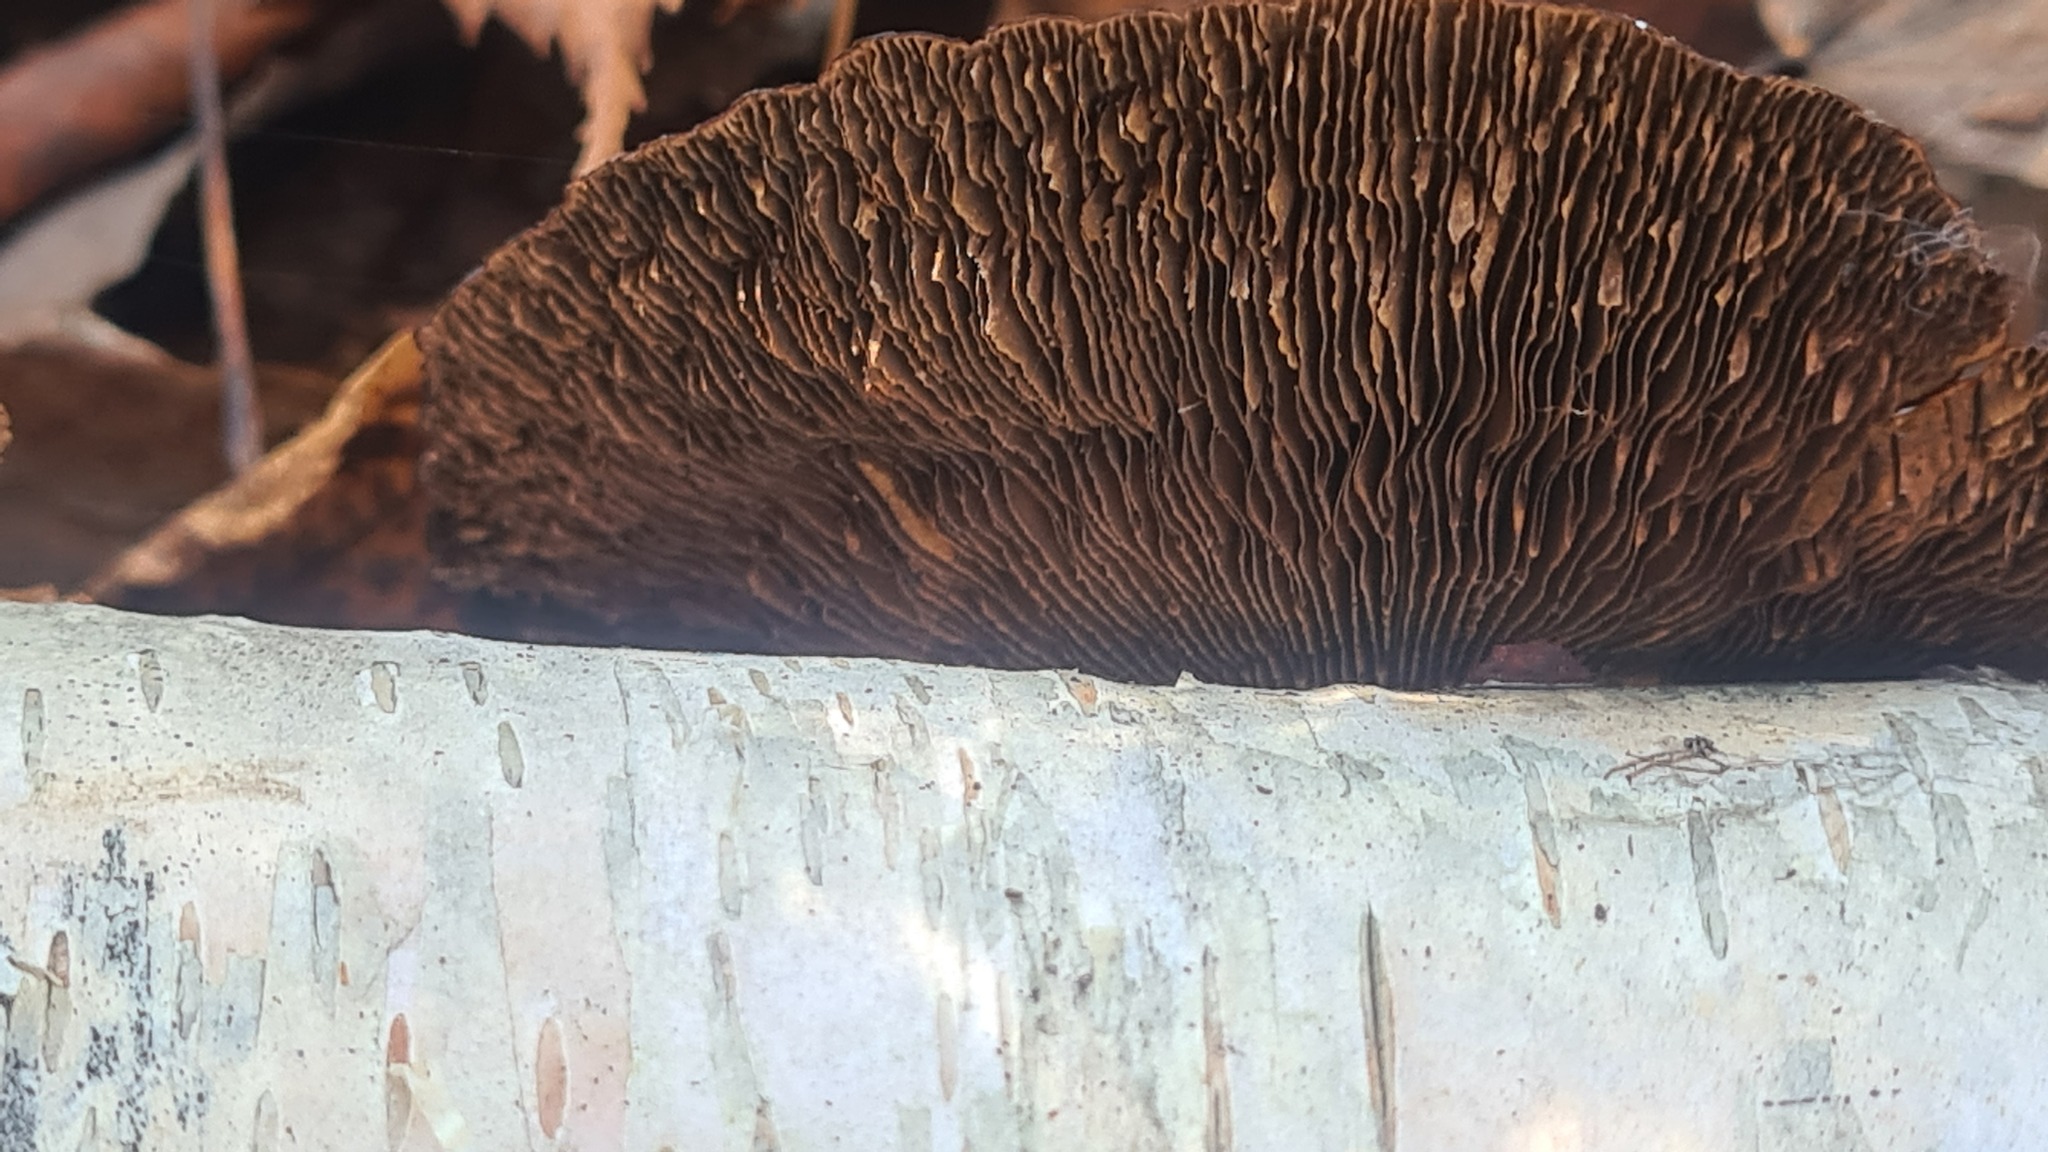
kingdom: Fungi
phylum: Basidiomycota
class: Agaricomycetes
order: Polyporales
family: Polyporaceae
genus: Daedaleopsis
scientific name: Daedaleopsis tricolor
